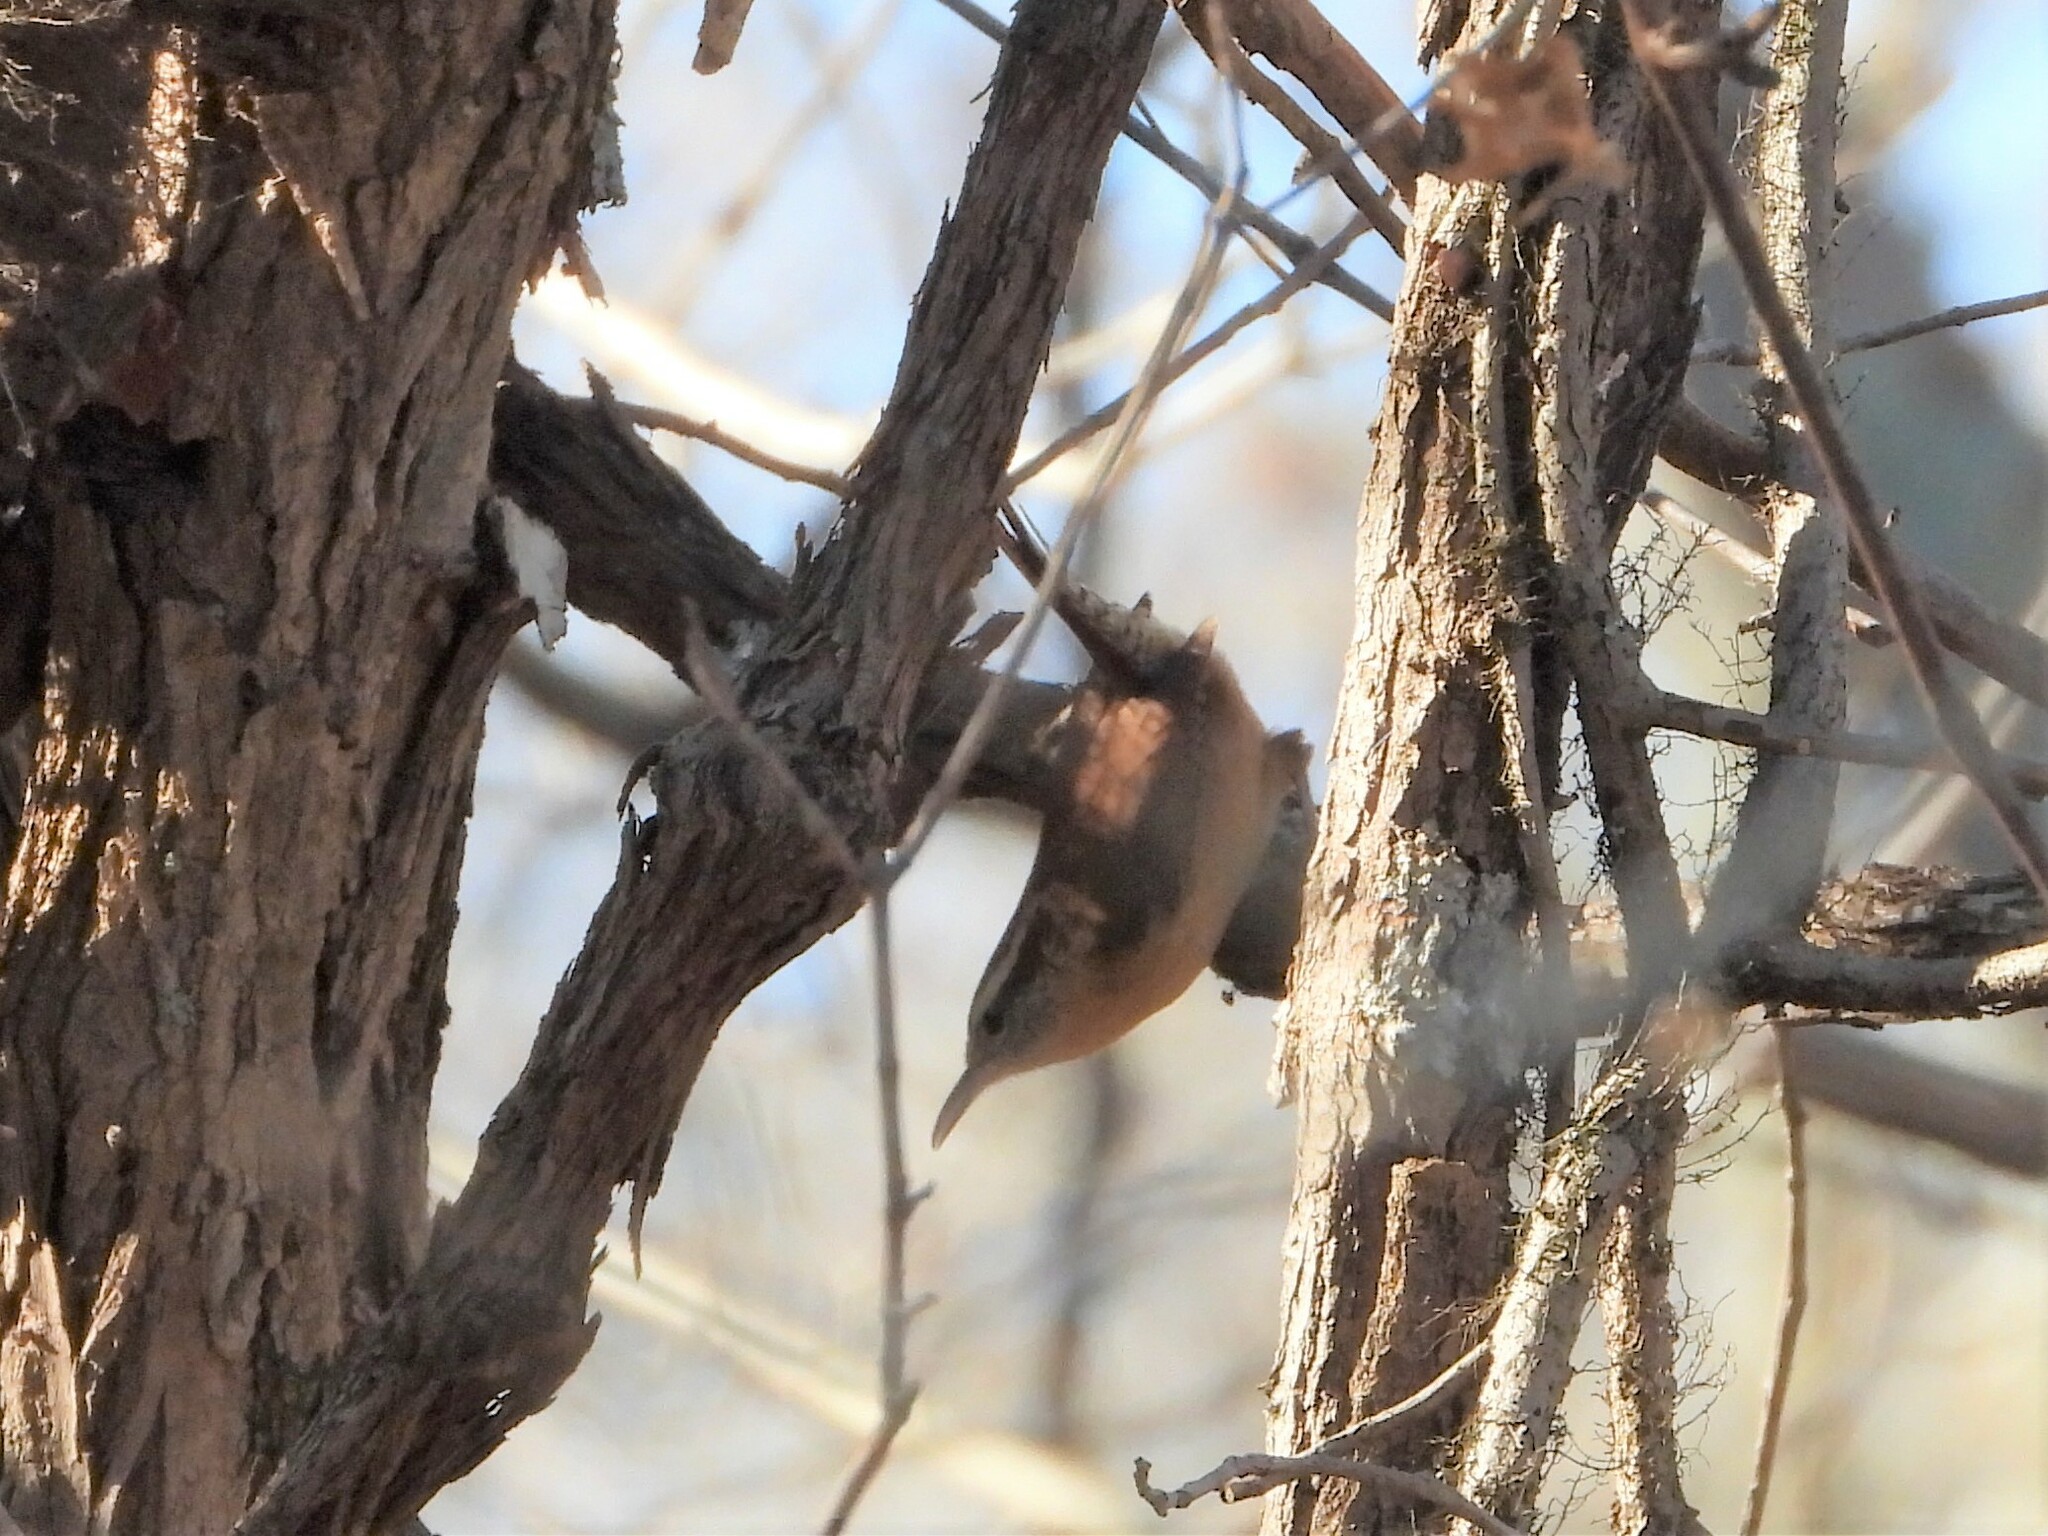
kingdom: Animalia
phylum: Chordata
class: Aves
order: Passeriformes
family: Troglodytidae
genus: Thryothorus
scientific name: Thryothorus ludovicianus
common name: Carolina wren
